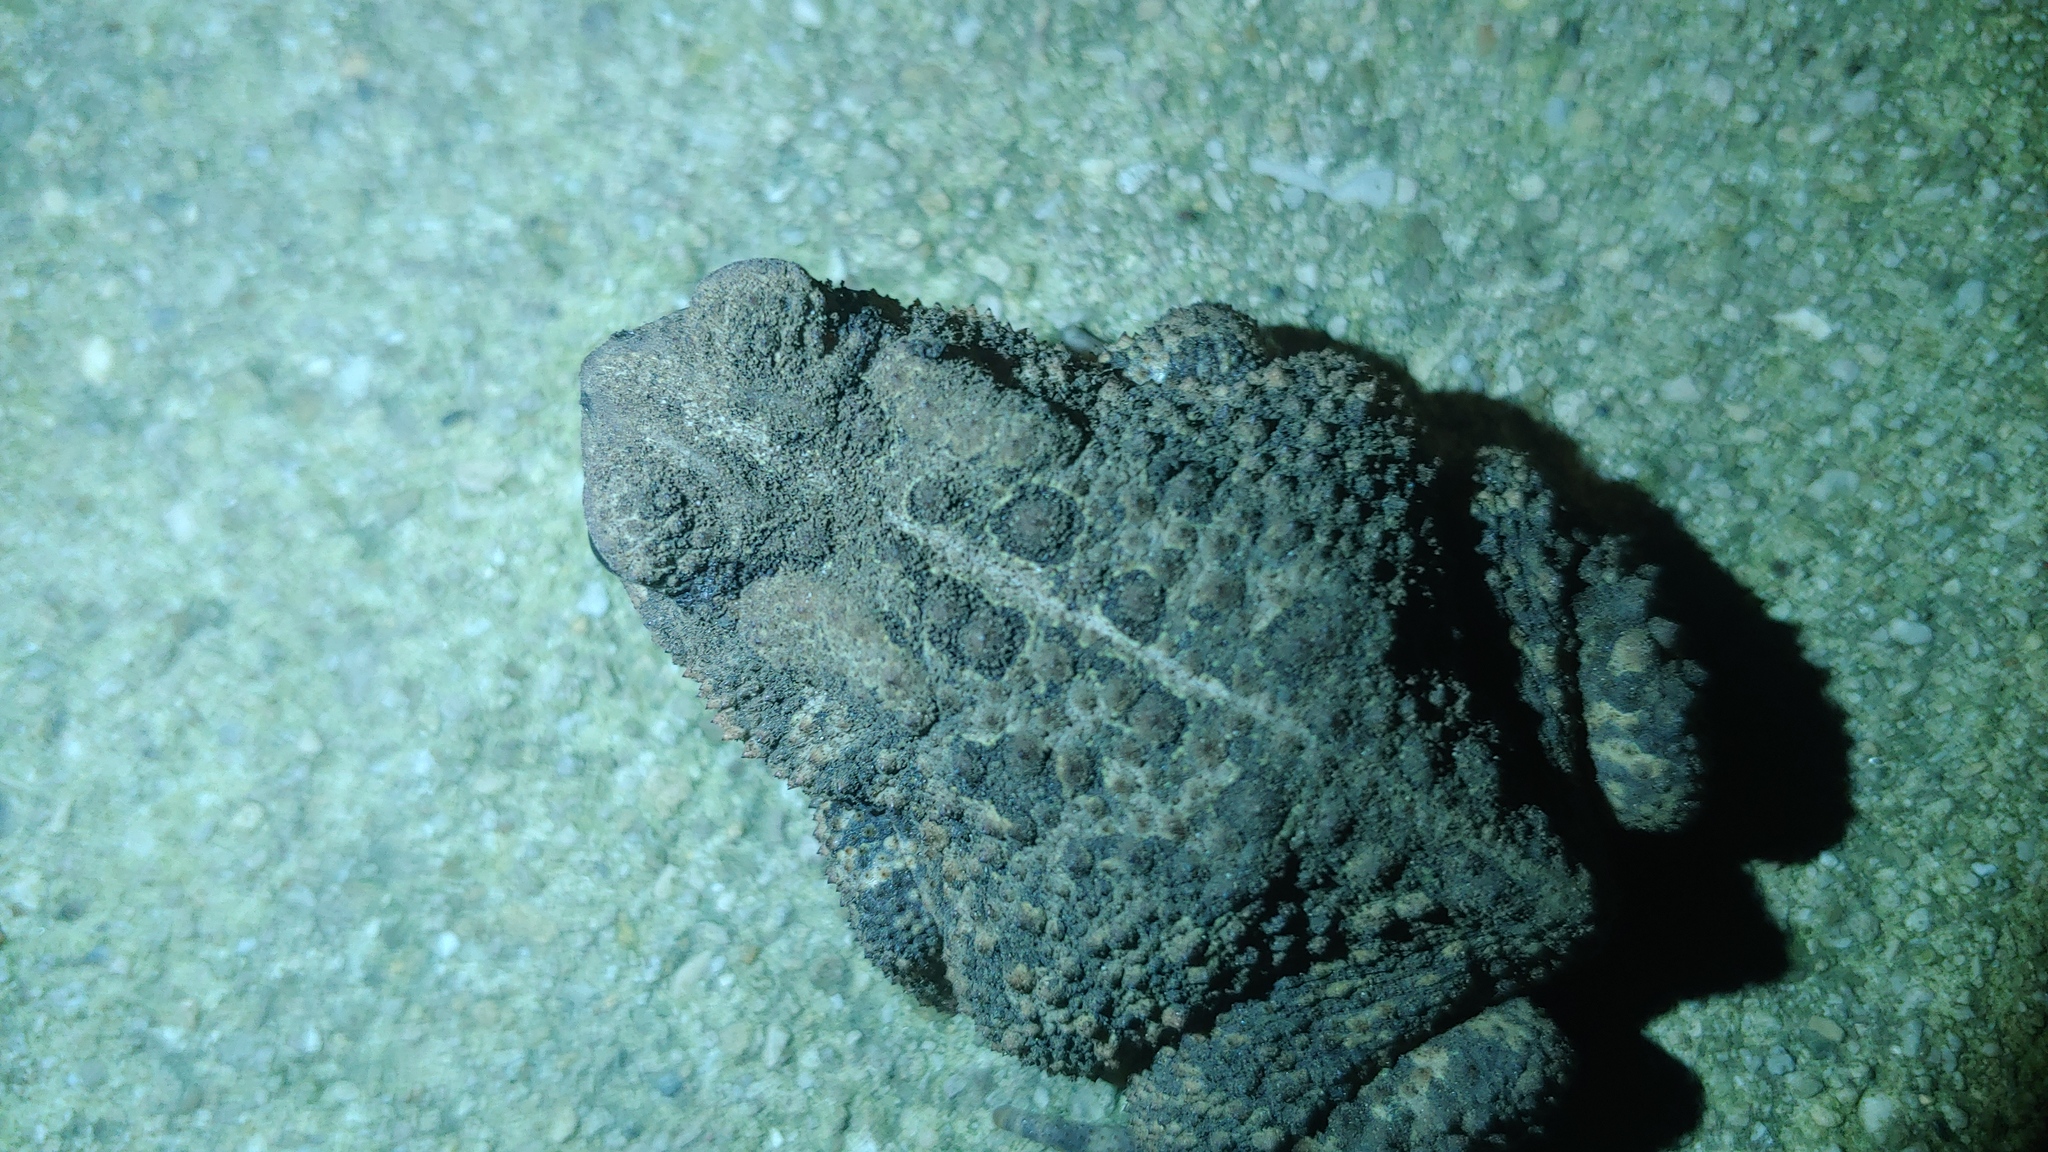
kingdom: Animalia
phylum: Chordata
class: Amphibia
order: Anura
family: Bufonidae
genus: Anaxyrus
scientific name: Anaxyrus americanus
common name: American toad
